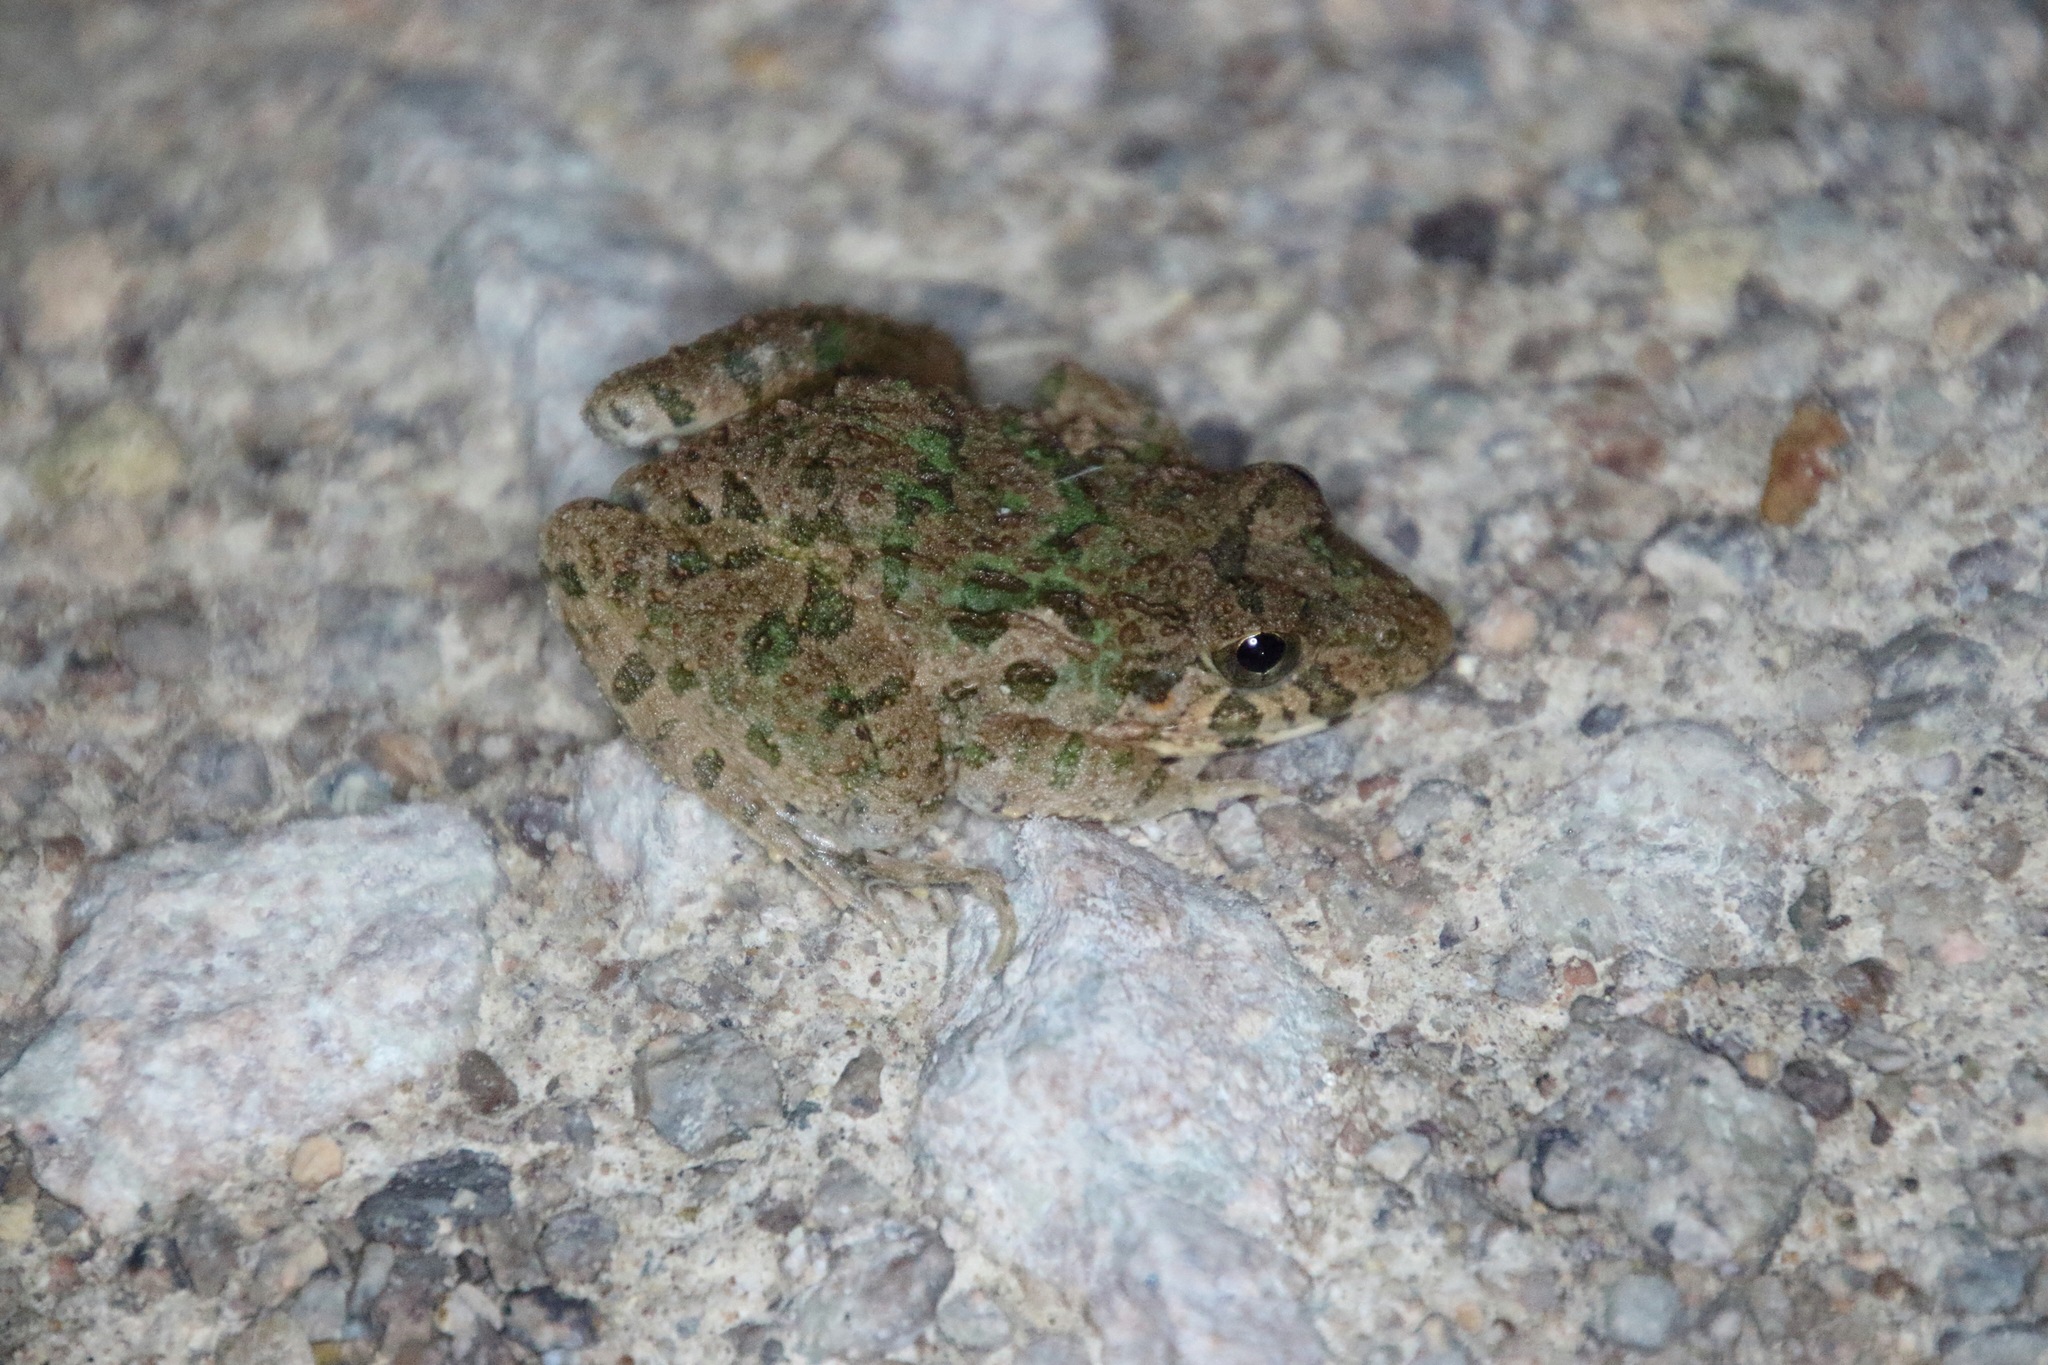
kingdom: Animalia
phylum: Chordata
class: Amphibia
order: Anura
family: Dicroglossidae
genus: Fejervarya
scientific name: Fejervarya limnocharis
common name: Asian grass frog/common pond frog/field frog/grass frog/indian rice frog
